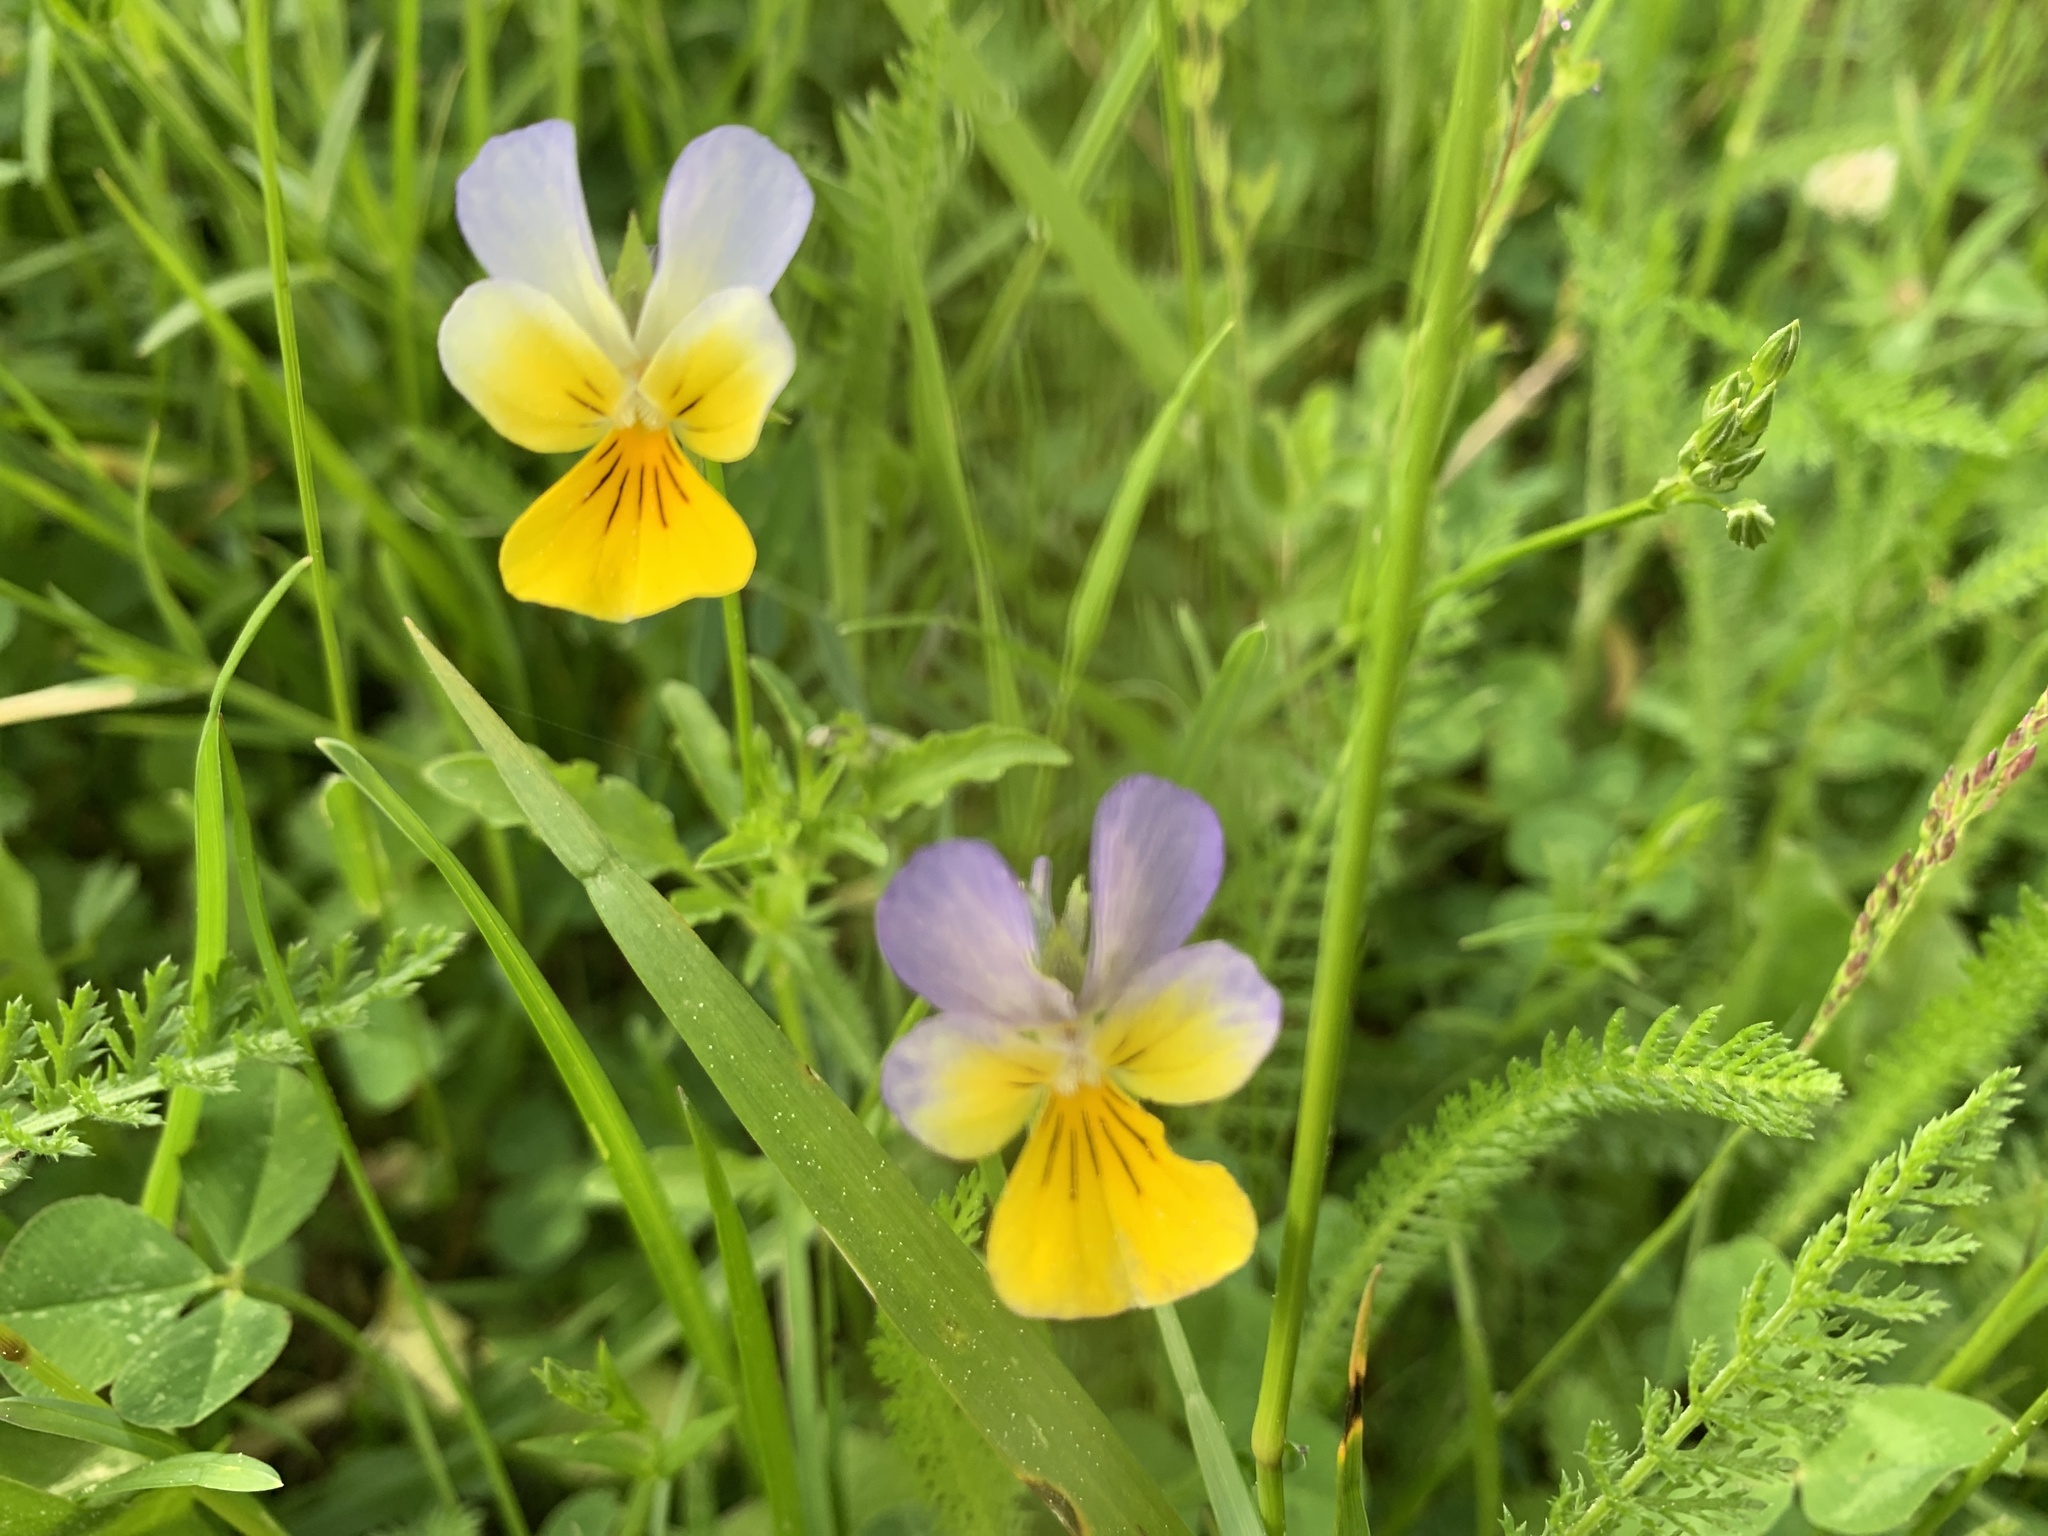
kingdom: Plantae
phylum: Tracheophyta
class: Magnoliopsida
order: Malpighiales
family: Violaceae
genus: Viola
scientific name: Viola tricolor
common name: Pansy
